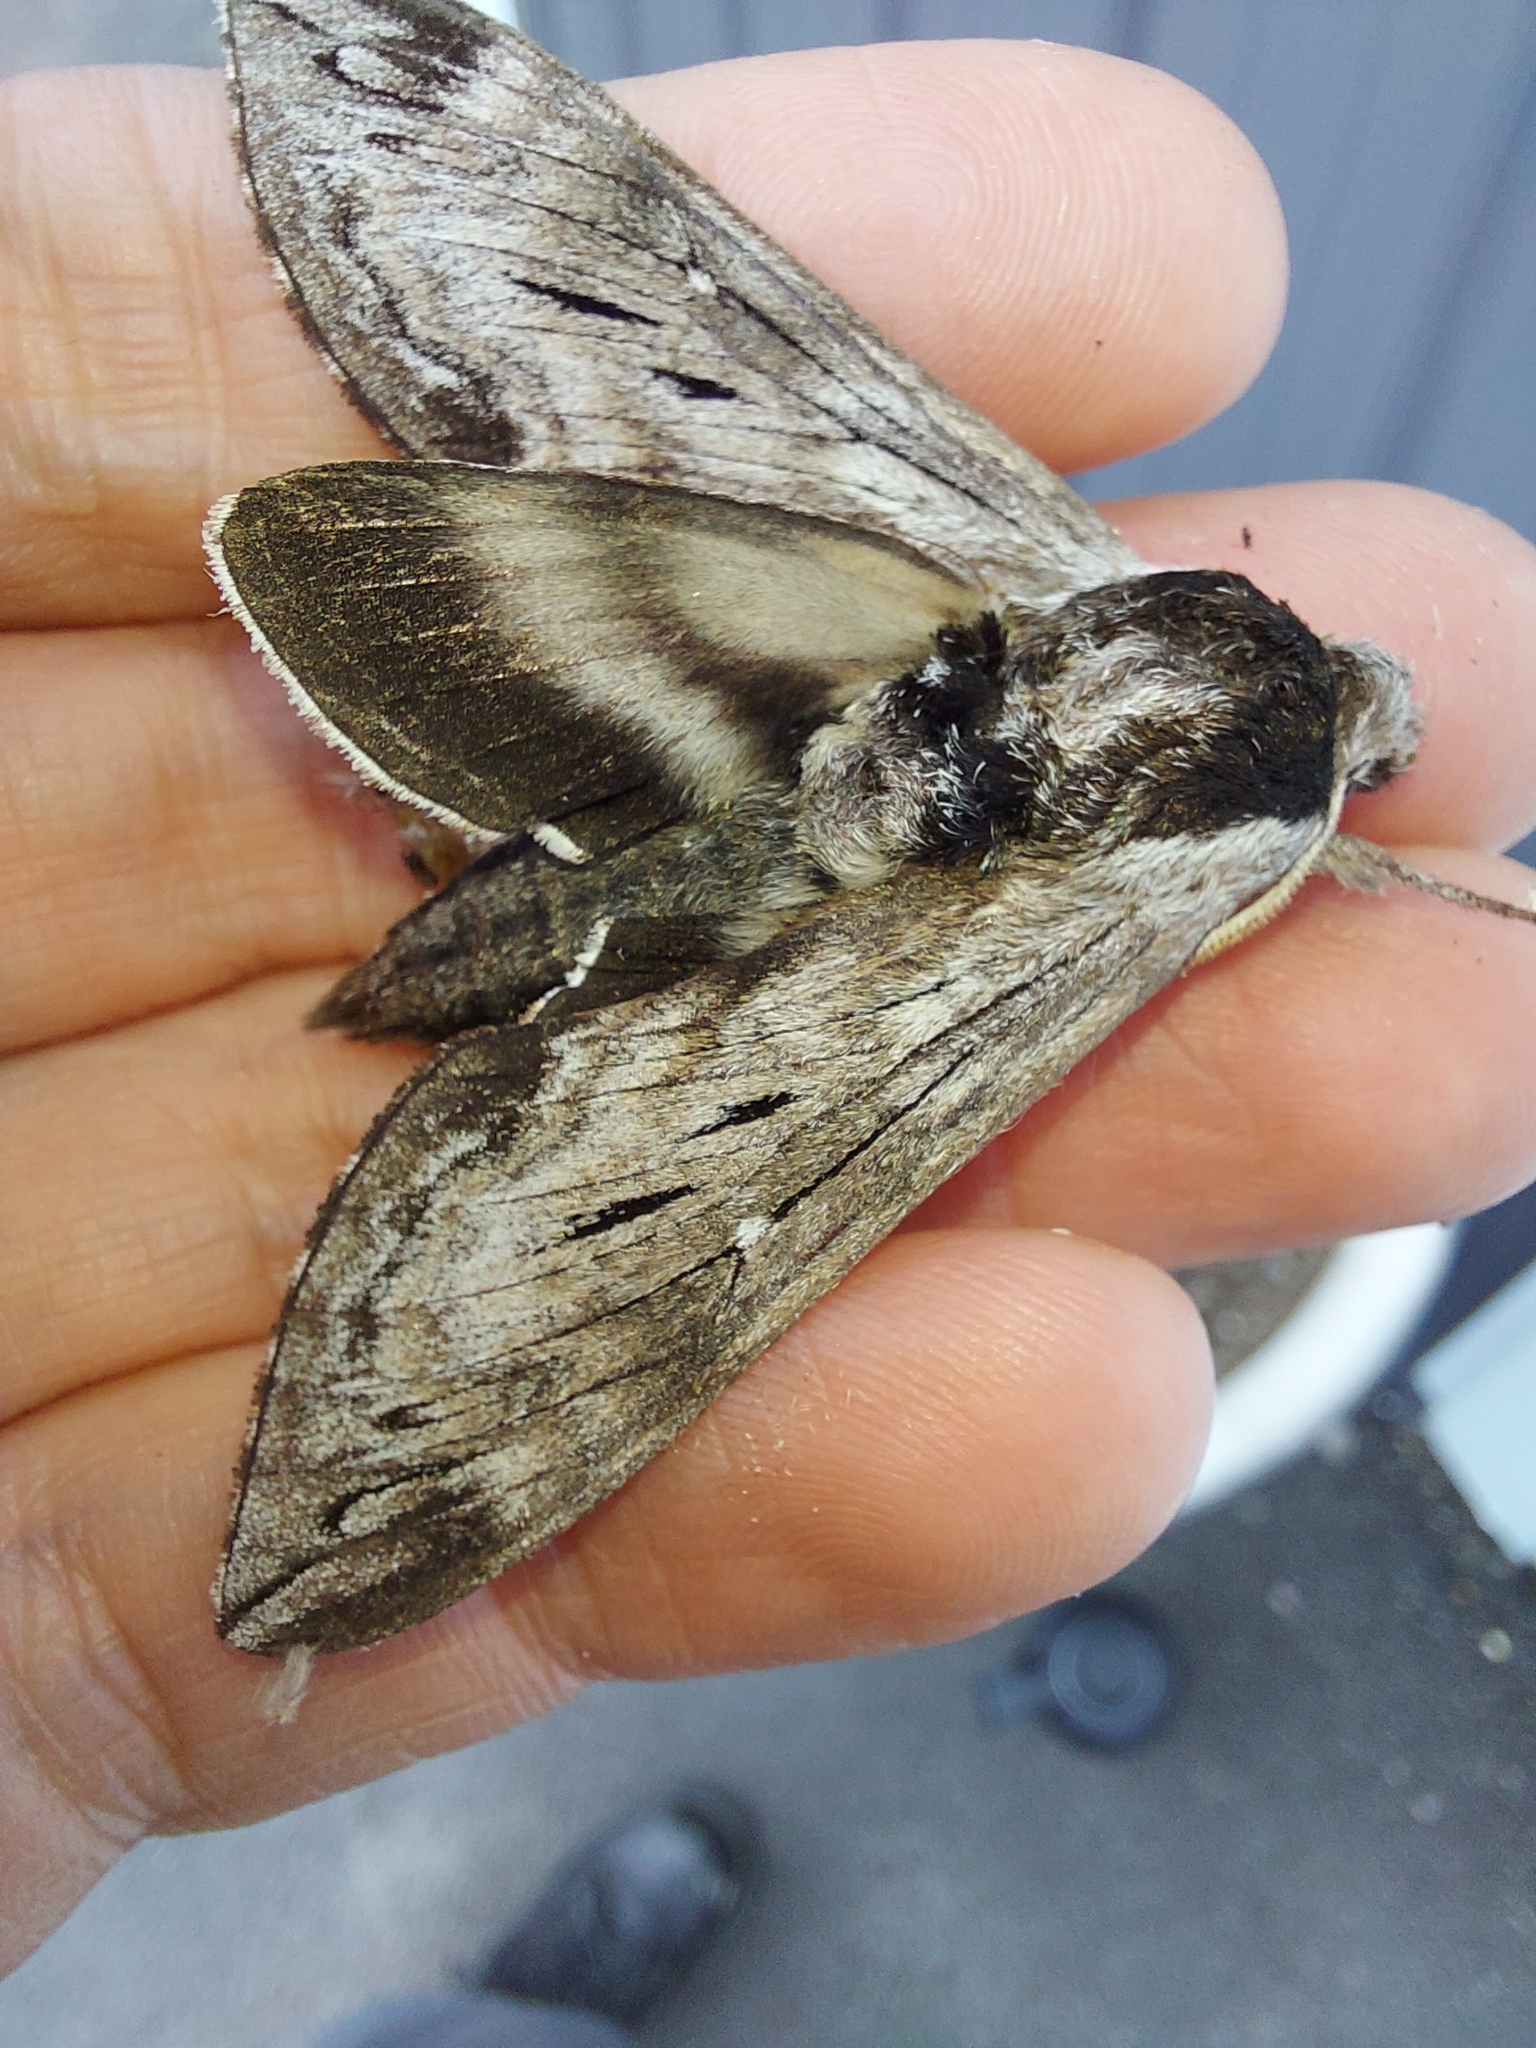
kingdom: Animalia
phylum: Arthropoda
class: Insecta
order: Lepidoptera
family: Sphingidae
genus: Sphinx
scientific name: Sphinx poecila
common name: Northern apple sphinx
